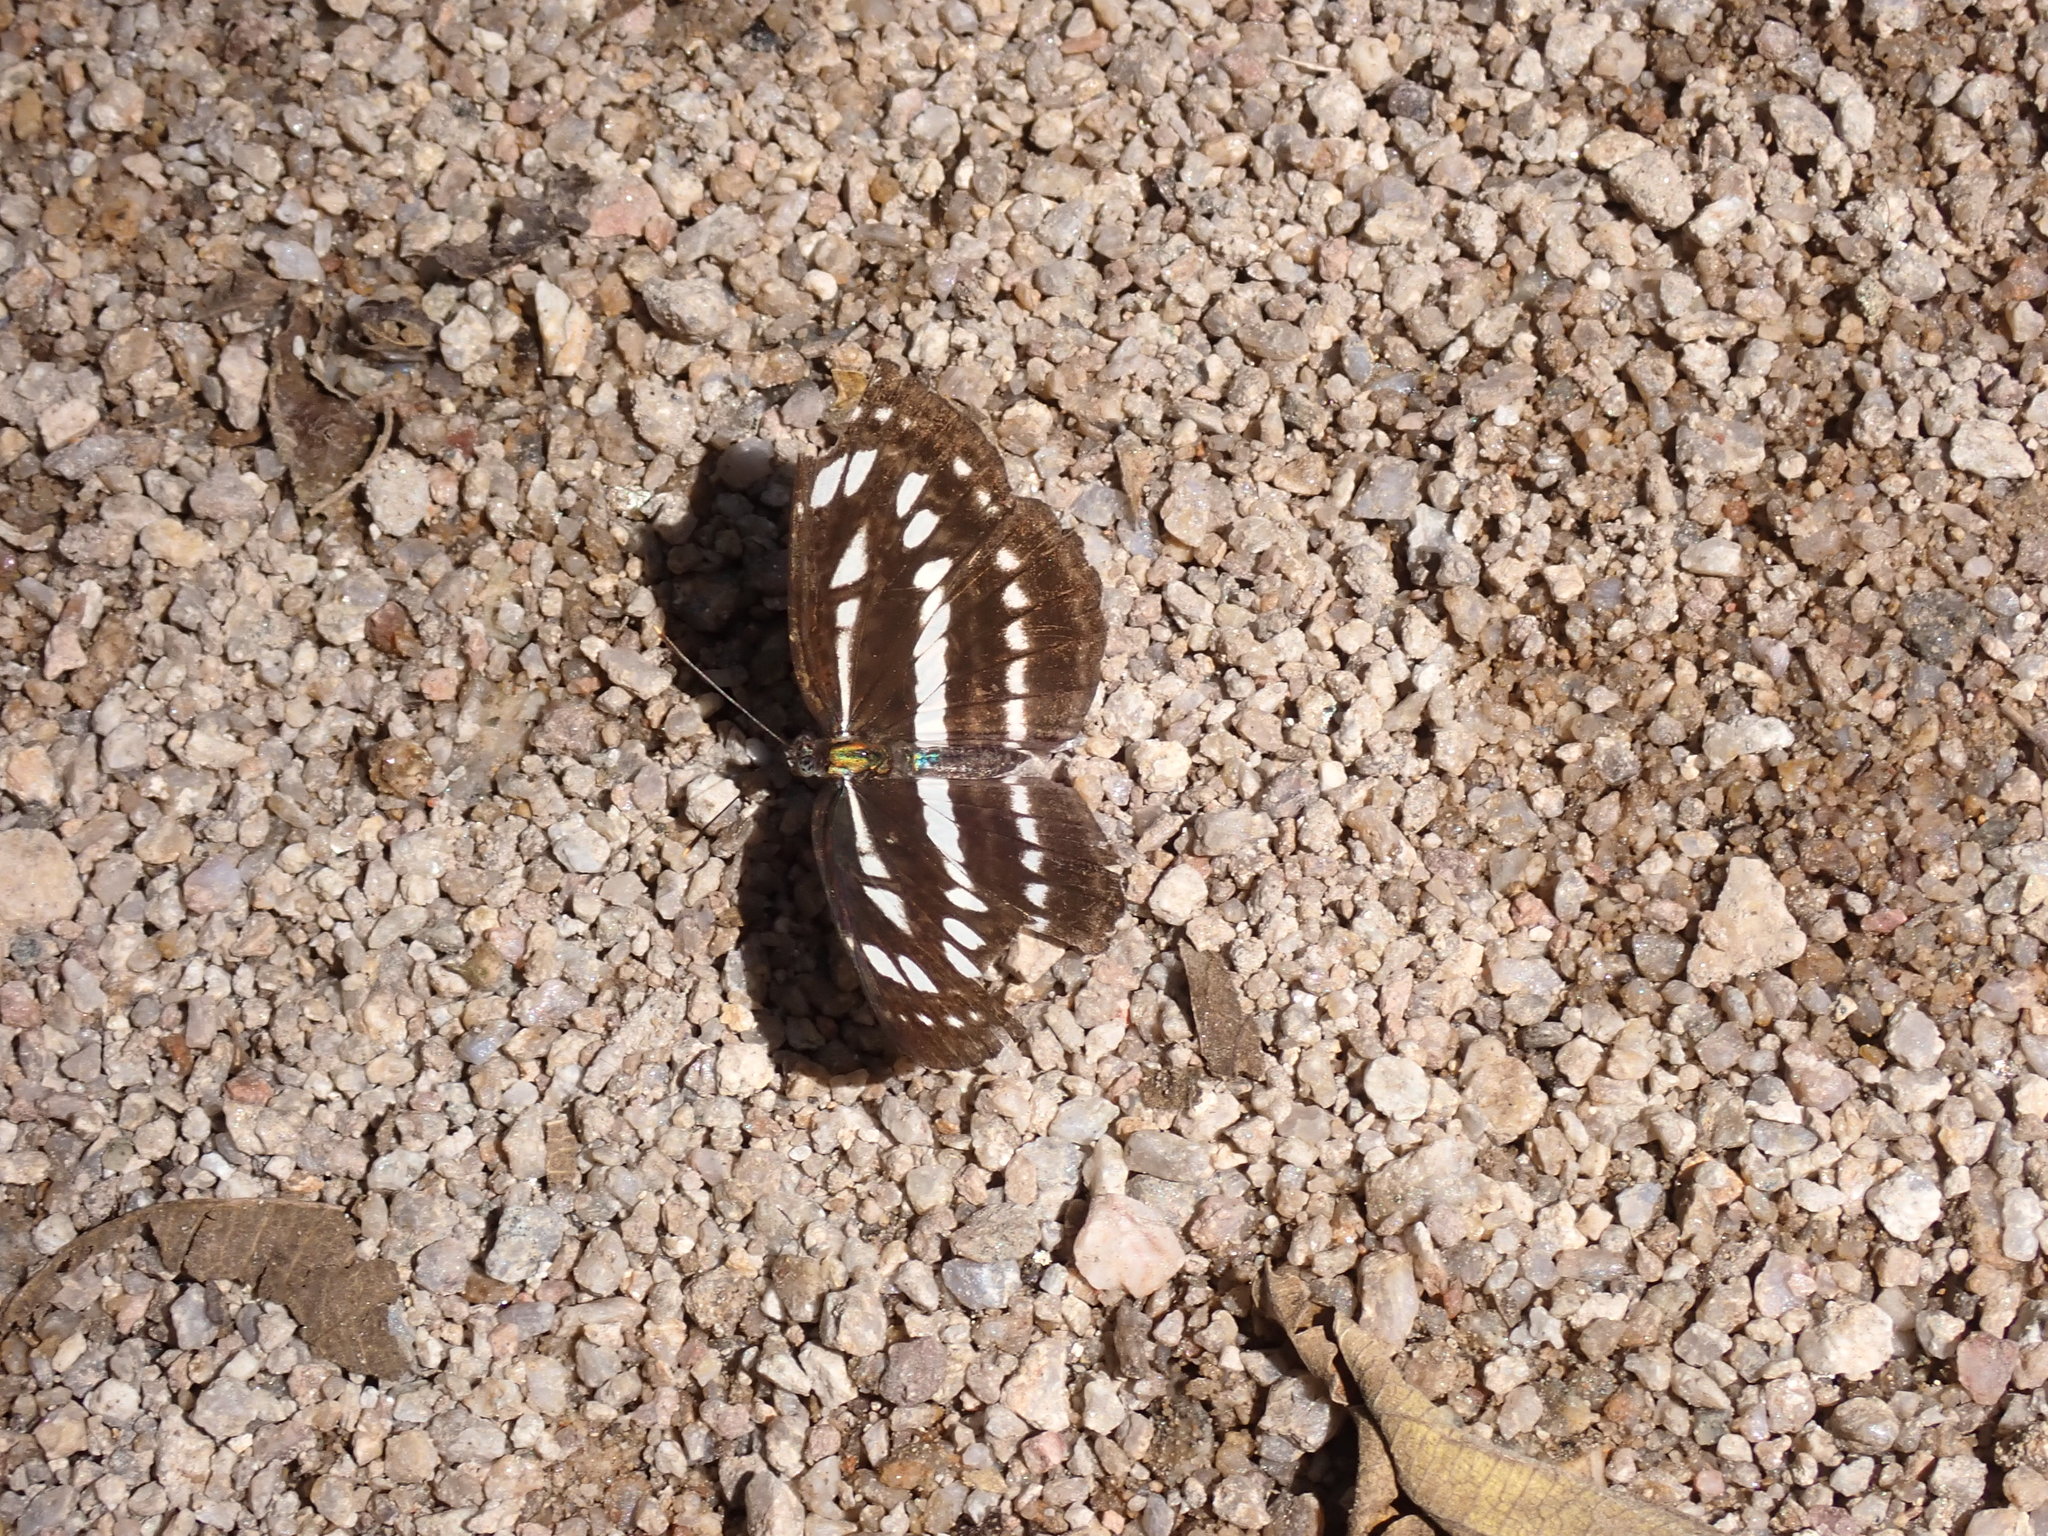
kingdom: Animalia
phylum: Arthropoda
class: Insecta
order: Lepidoptera
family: Nymphalidae
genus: Neptis
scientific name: Neptis hylas
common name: Common sailer
